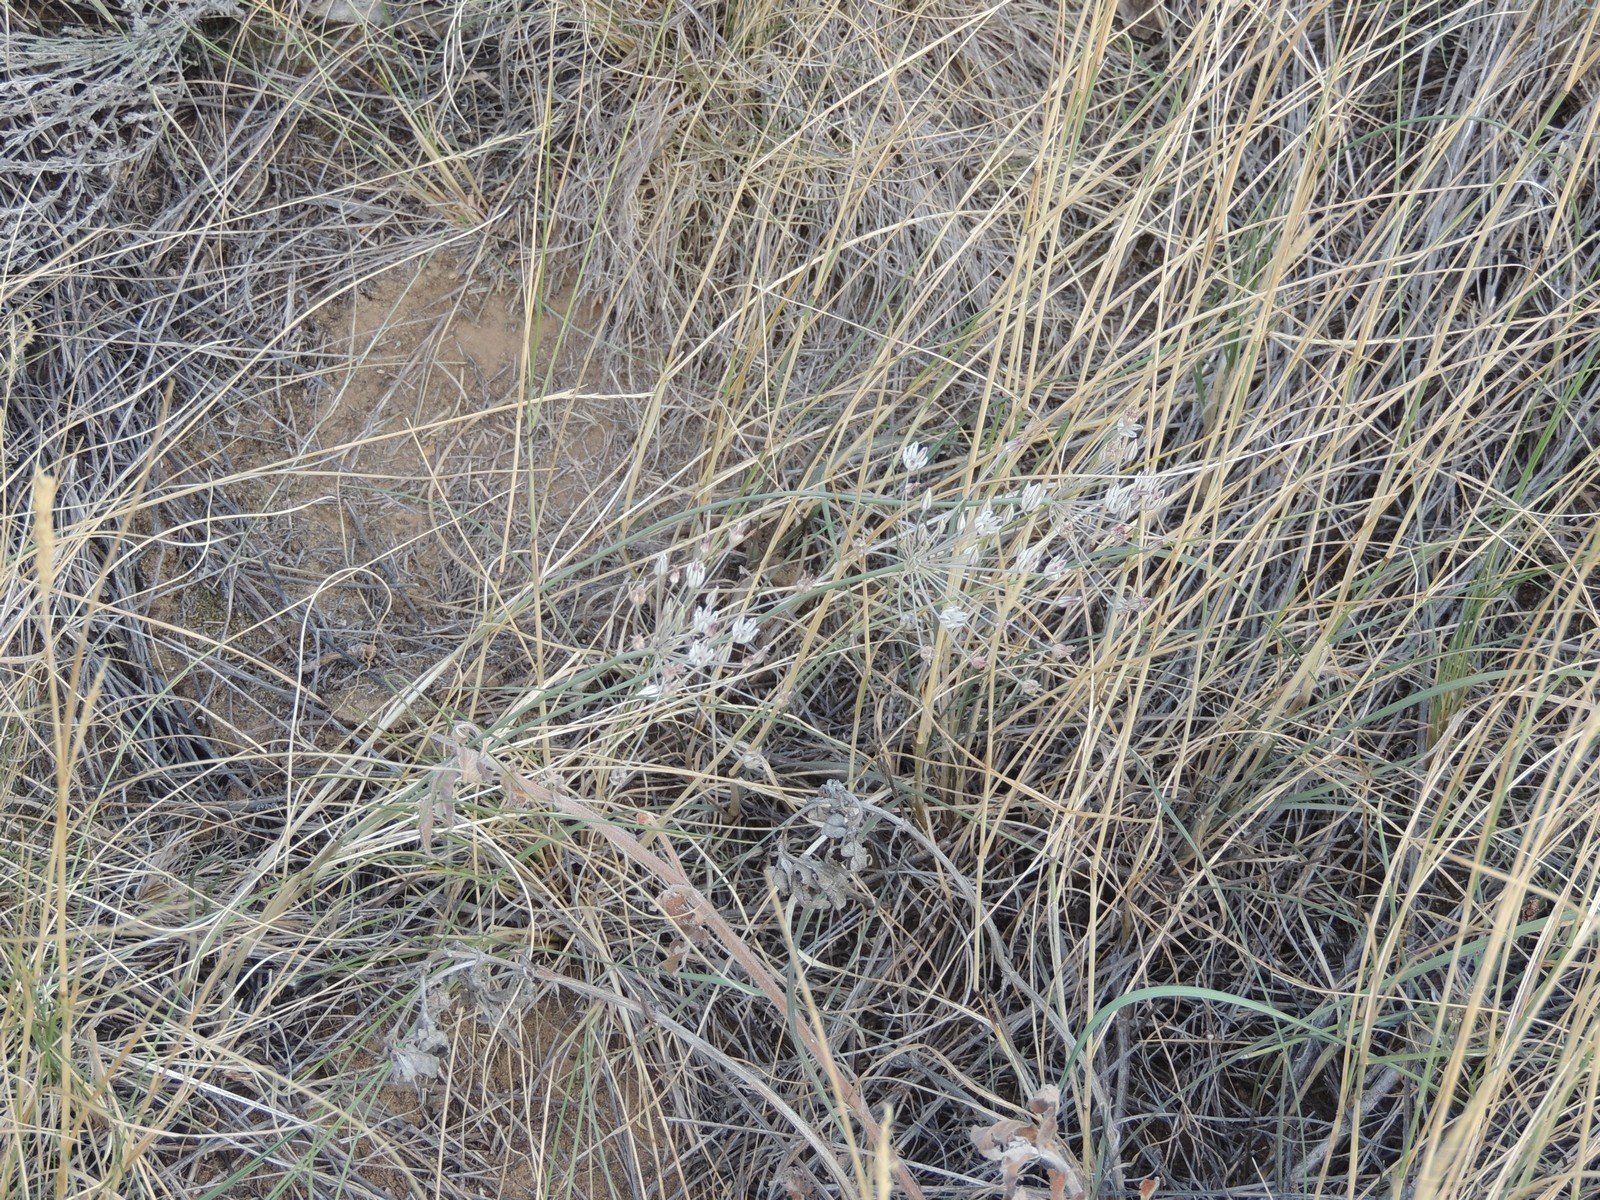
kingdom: Plantae
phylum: Tracheophyta
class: Liliopsida
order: Asparagales
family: Amaryllidaceae
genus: Allium
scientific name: Allium inaequale
